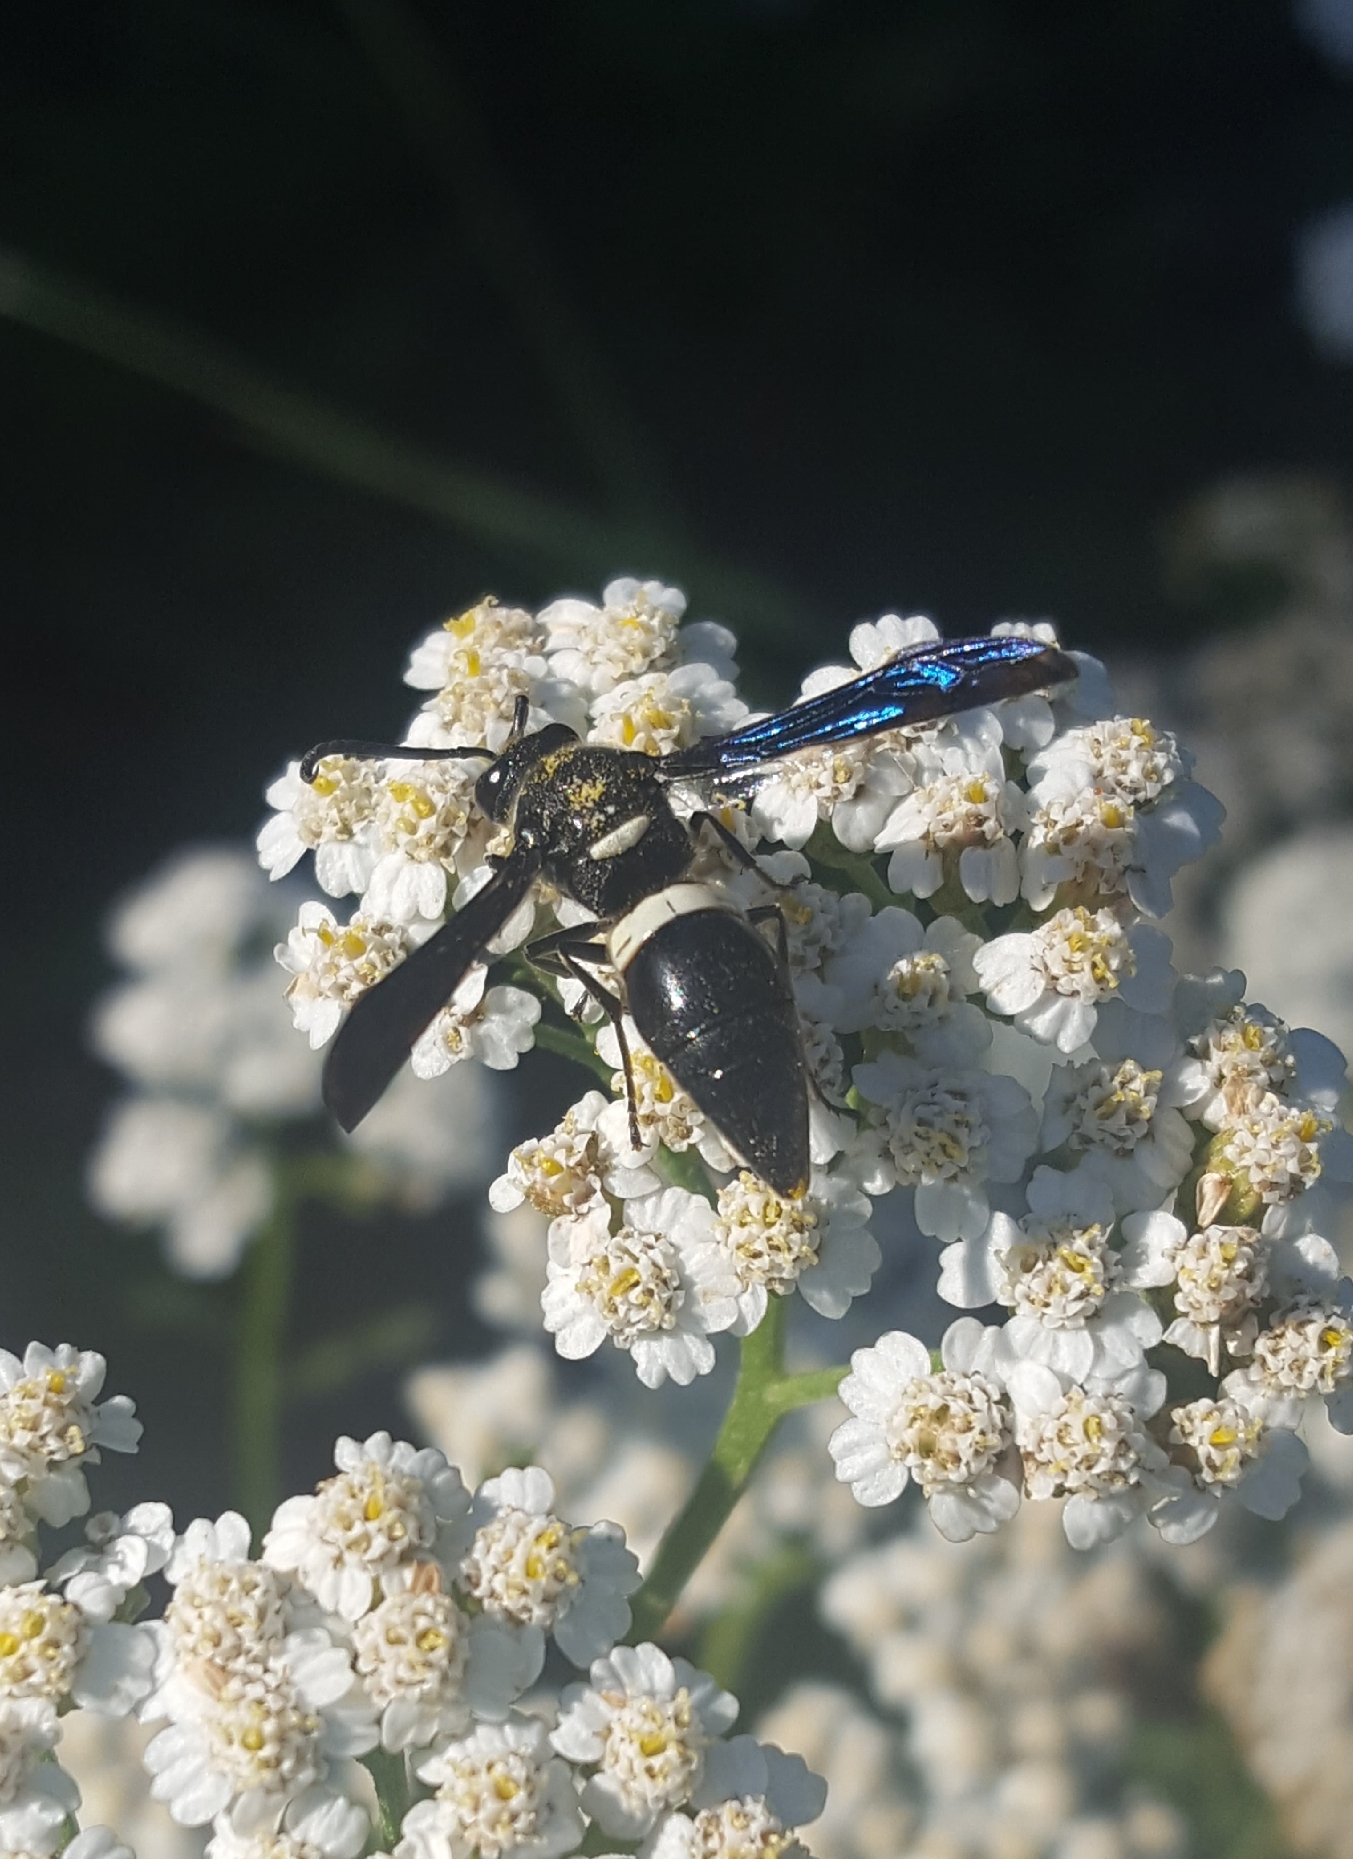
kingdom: Animalia
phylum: Arthropoda
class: Insecta
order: Hymenoptera
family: Eumenidae
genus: Monobia
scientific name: Monobia quadridens
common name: Four-toothed mason wasp
